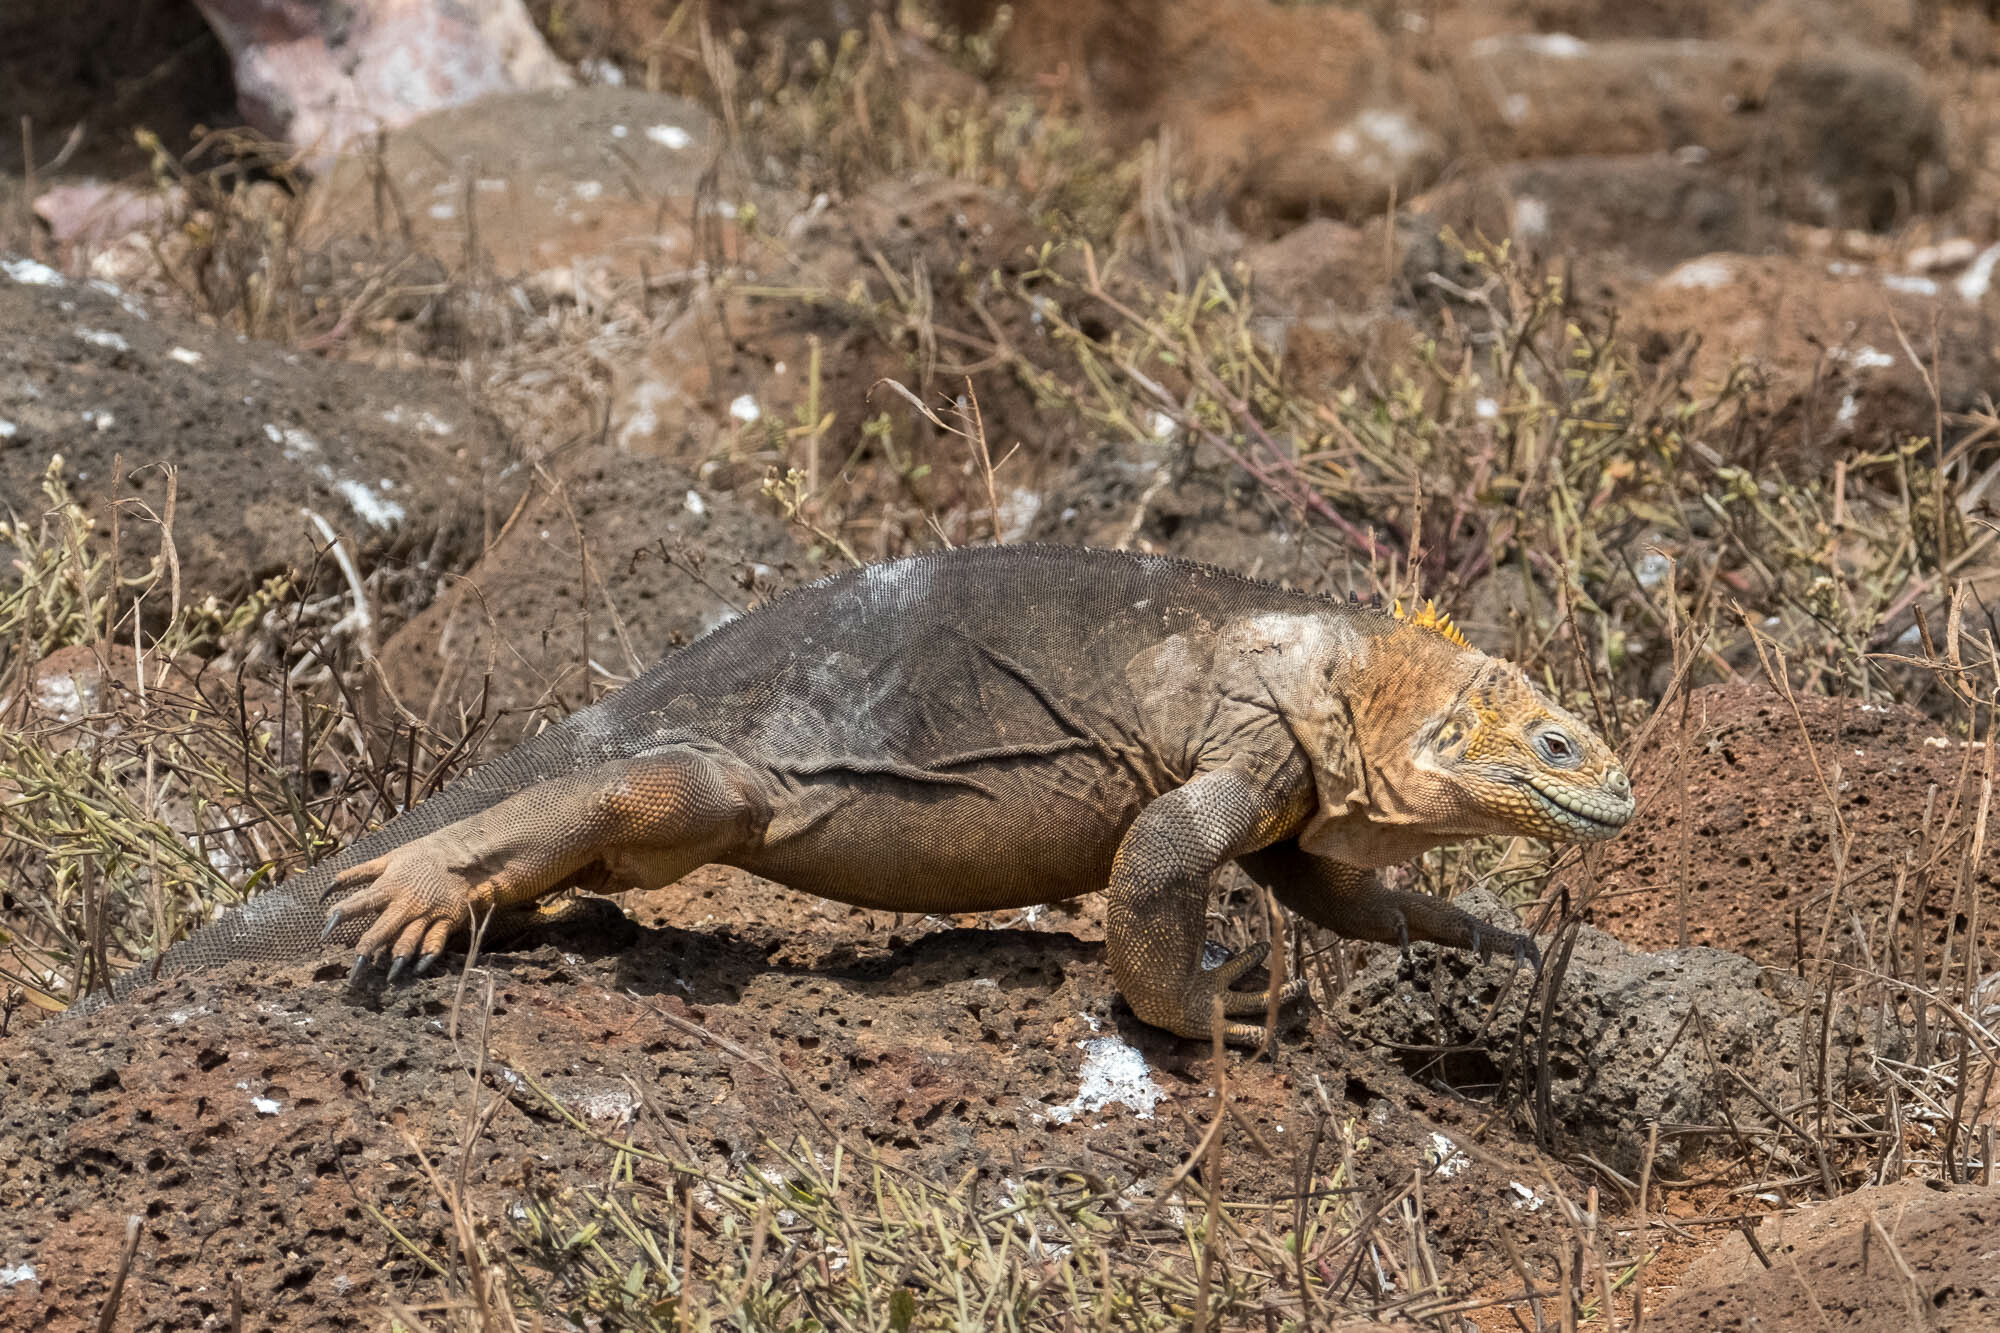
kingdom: Animalia
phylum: Chordata
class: Squamata
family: Iguanidae
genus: Conolophus
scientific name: Conolophus subcristatus
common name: Galapagos land iguana
